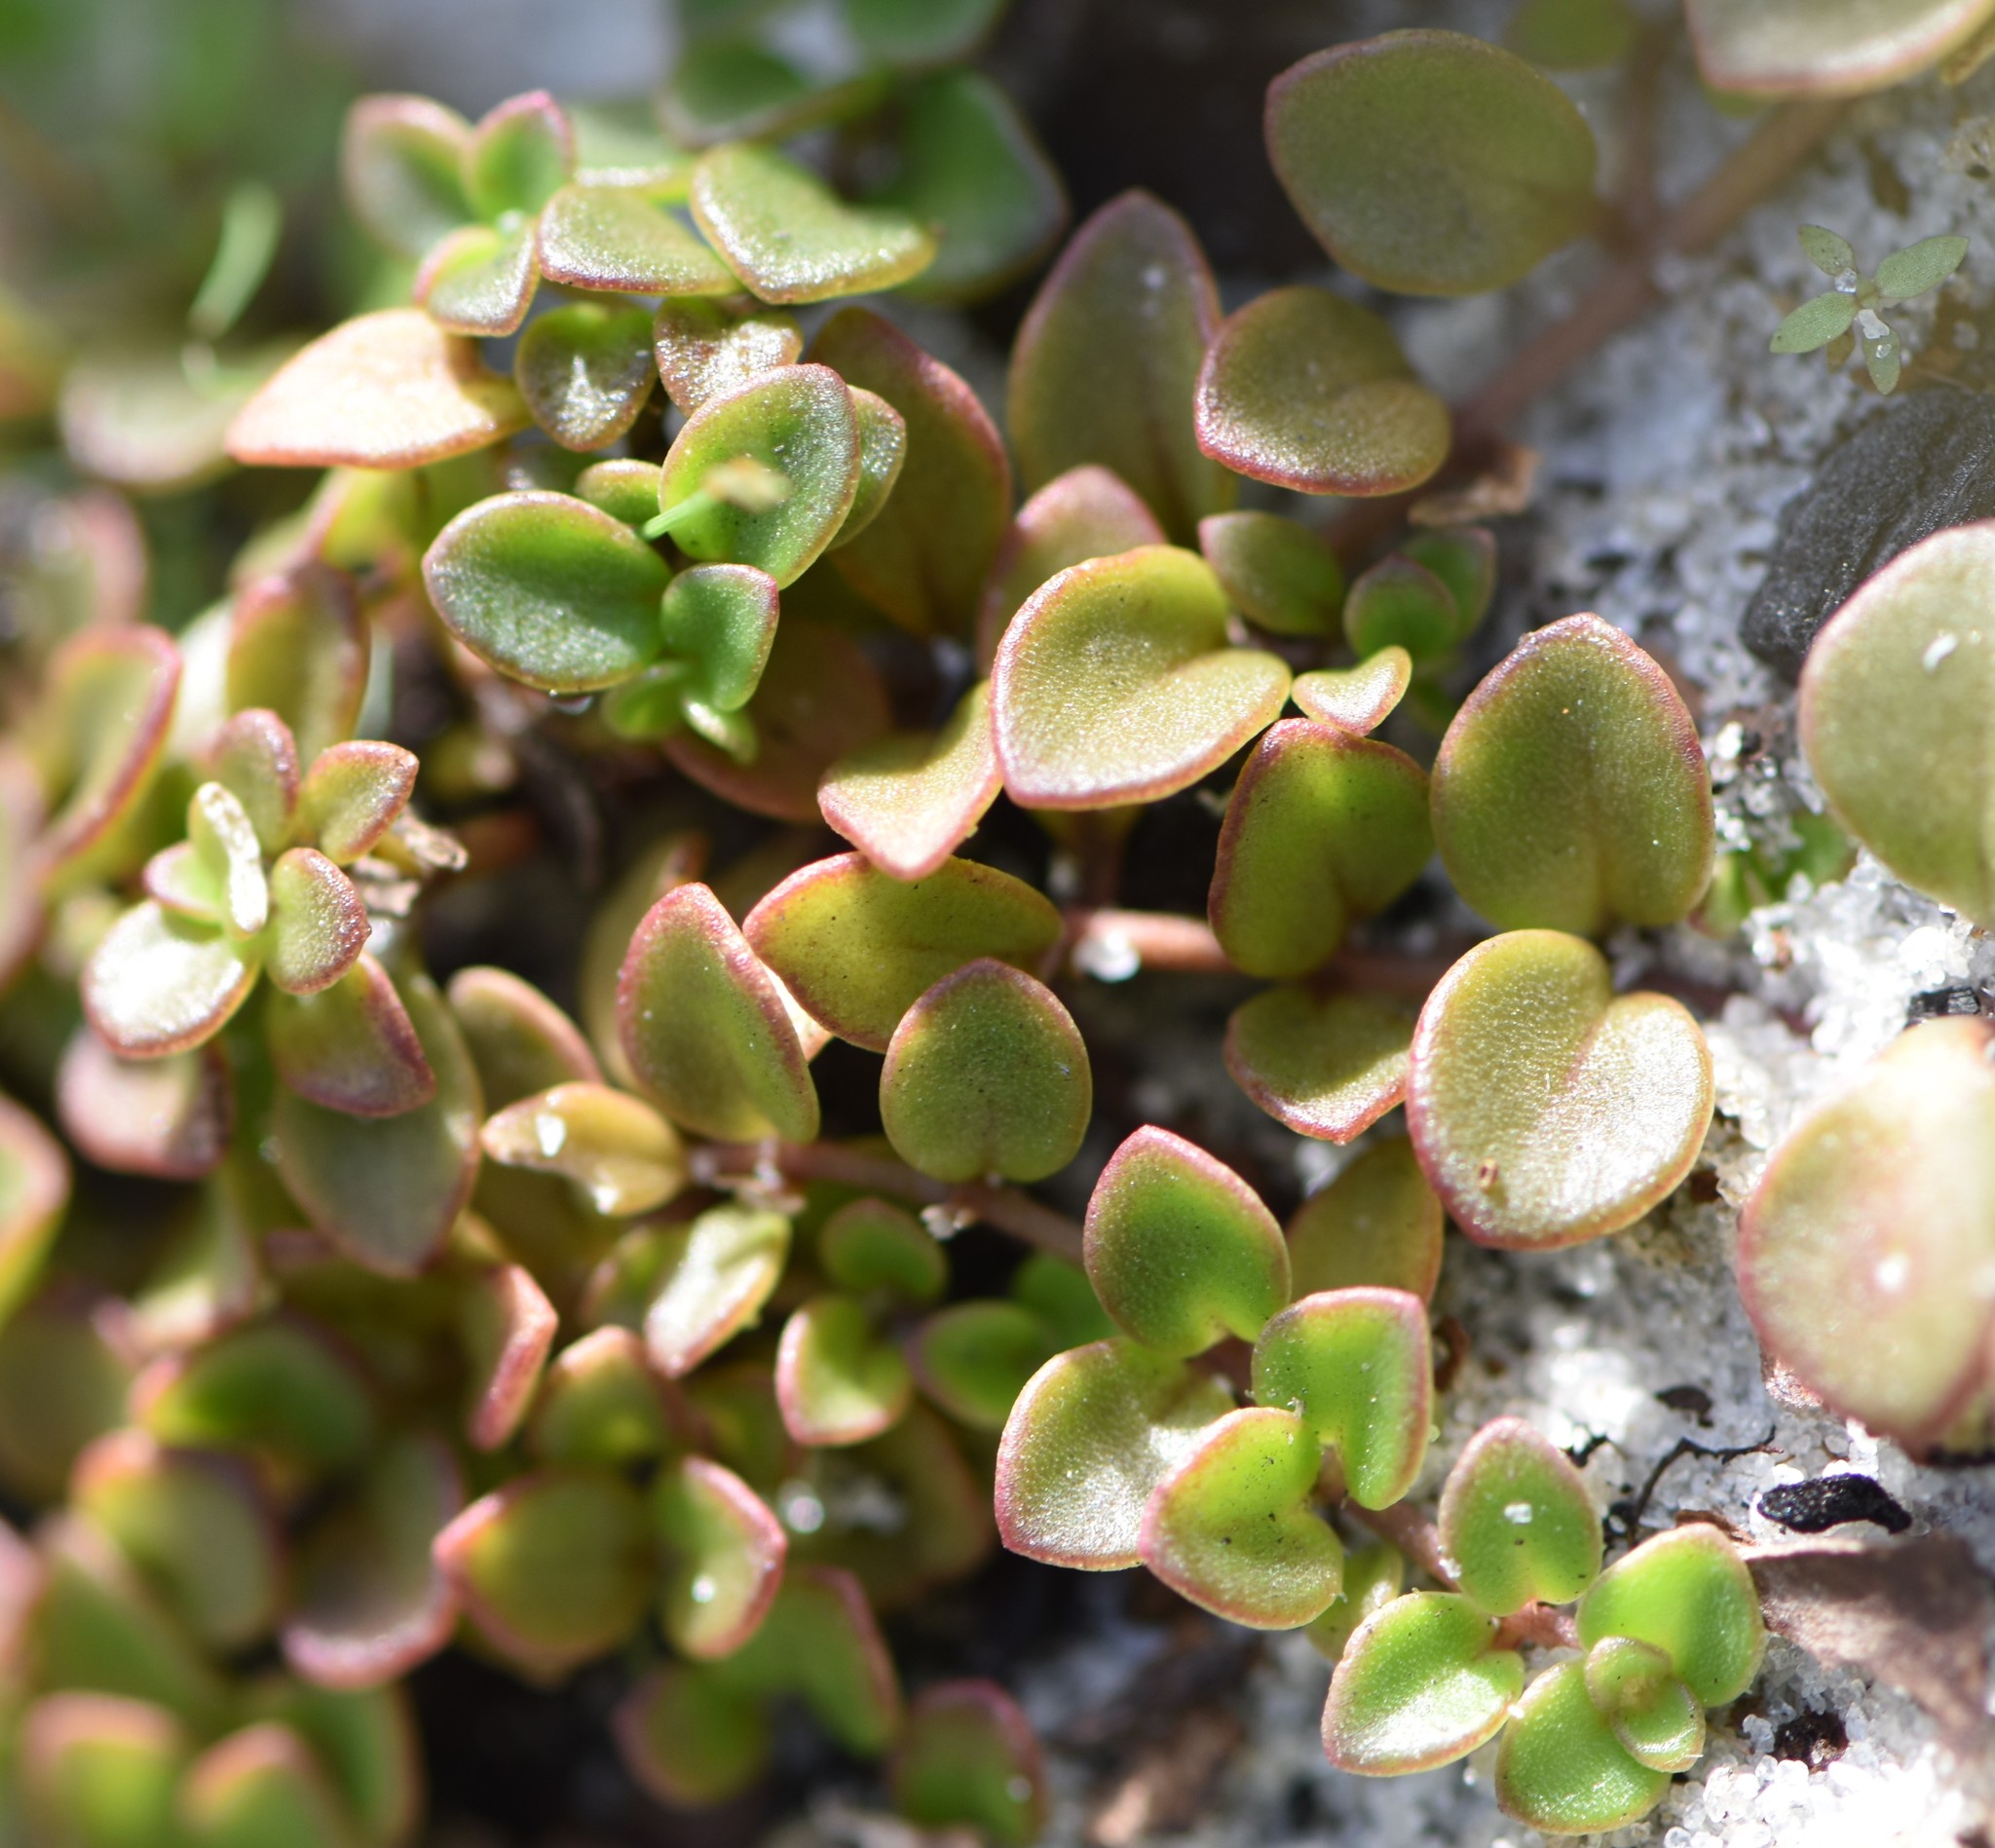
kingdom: Plantae
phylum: Tracheophyta
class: Magnoliopsida
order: Gentianales
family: Rubiaceae
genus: Houstonia
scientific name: Houstonia procumbens
